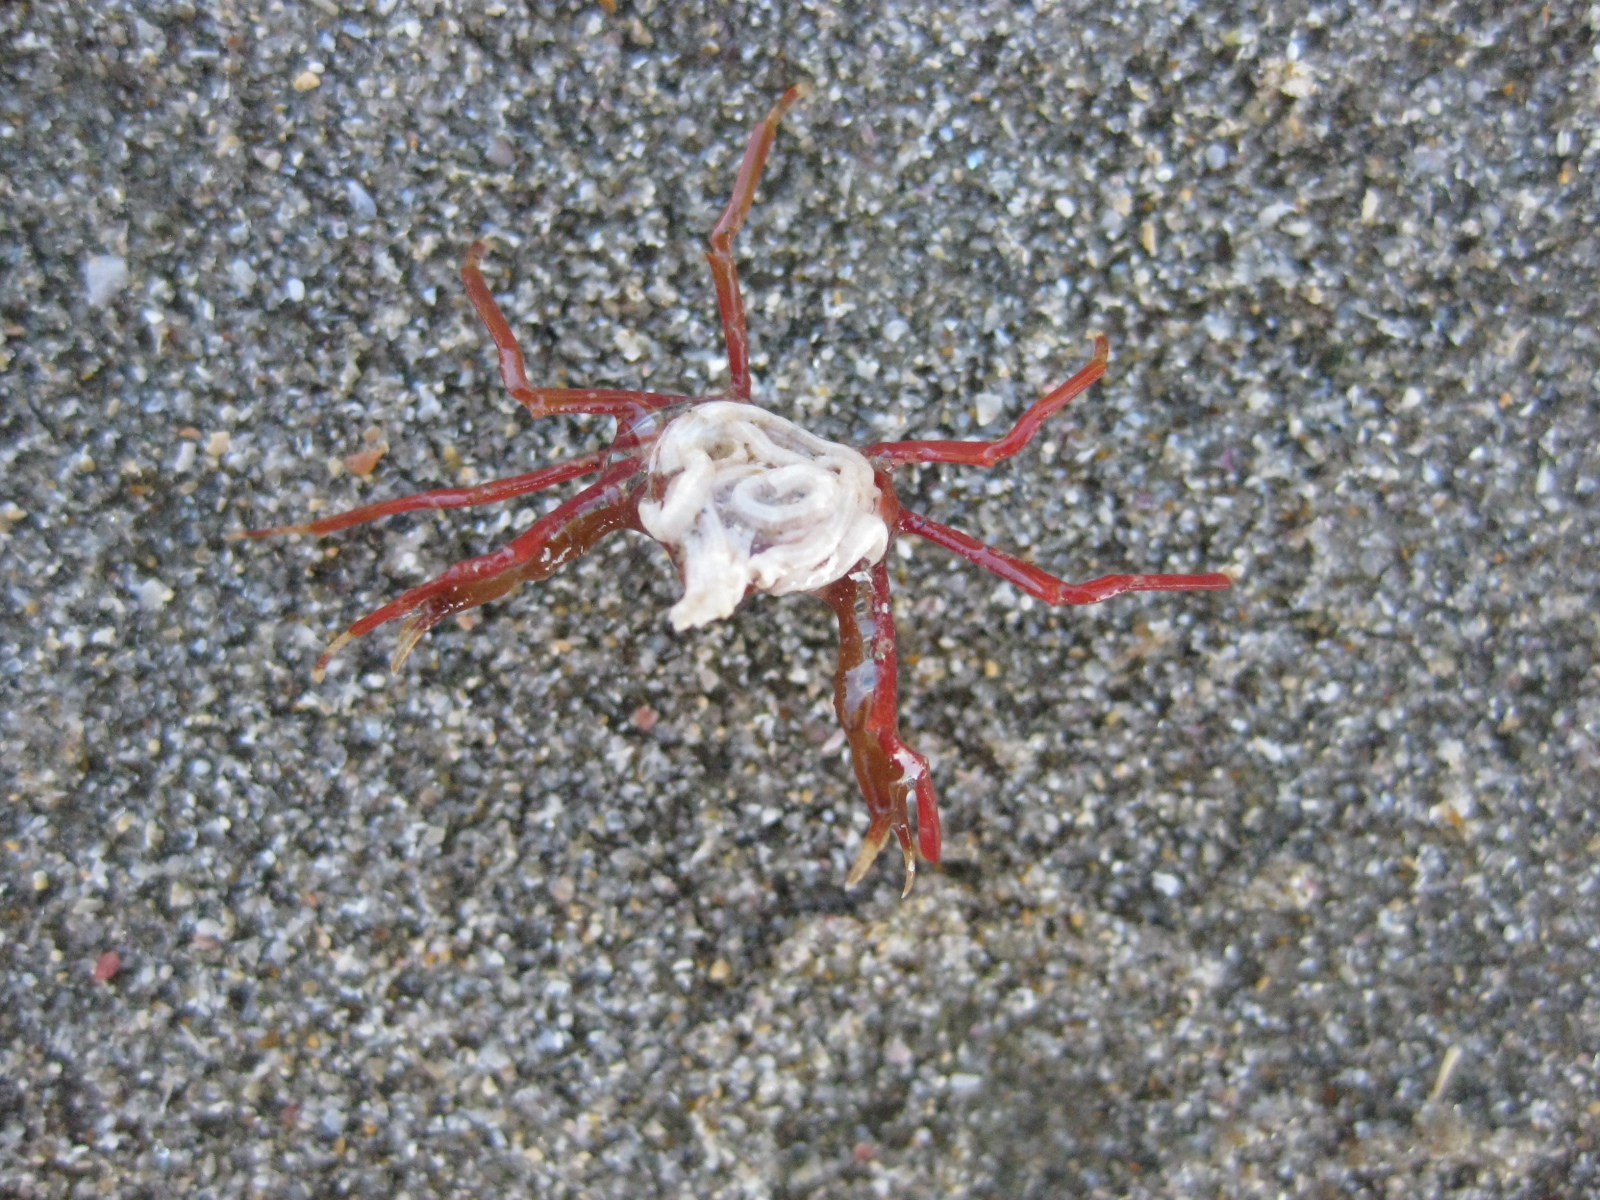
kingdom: Animalia
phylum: Arthropoda
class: Malacostraca
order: Decapoda
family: Hymenosomatidae
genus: Elamena
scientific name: Elamena producta
